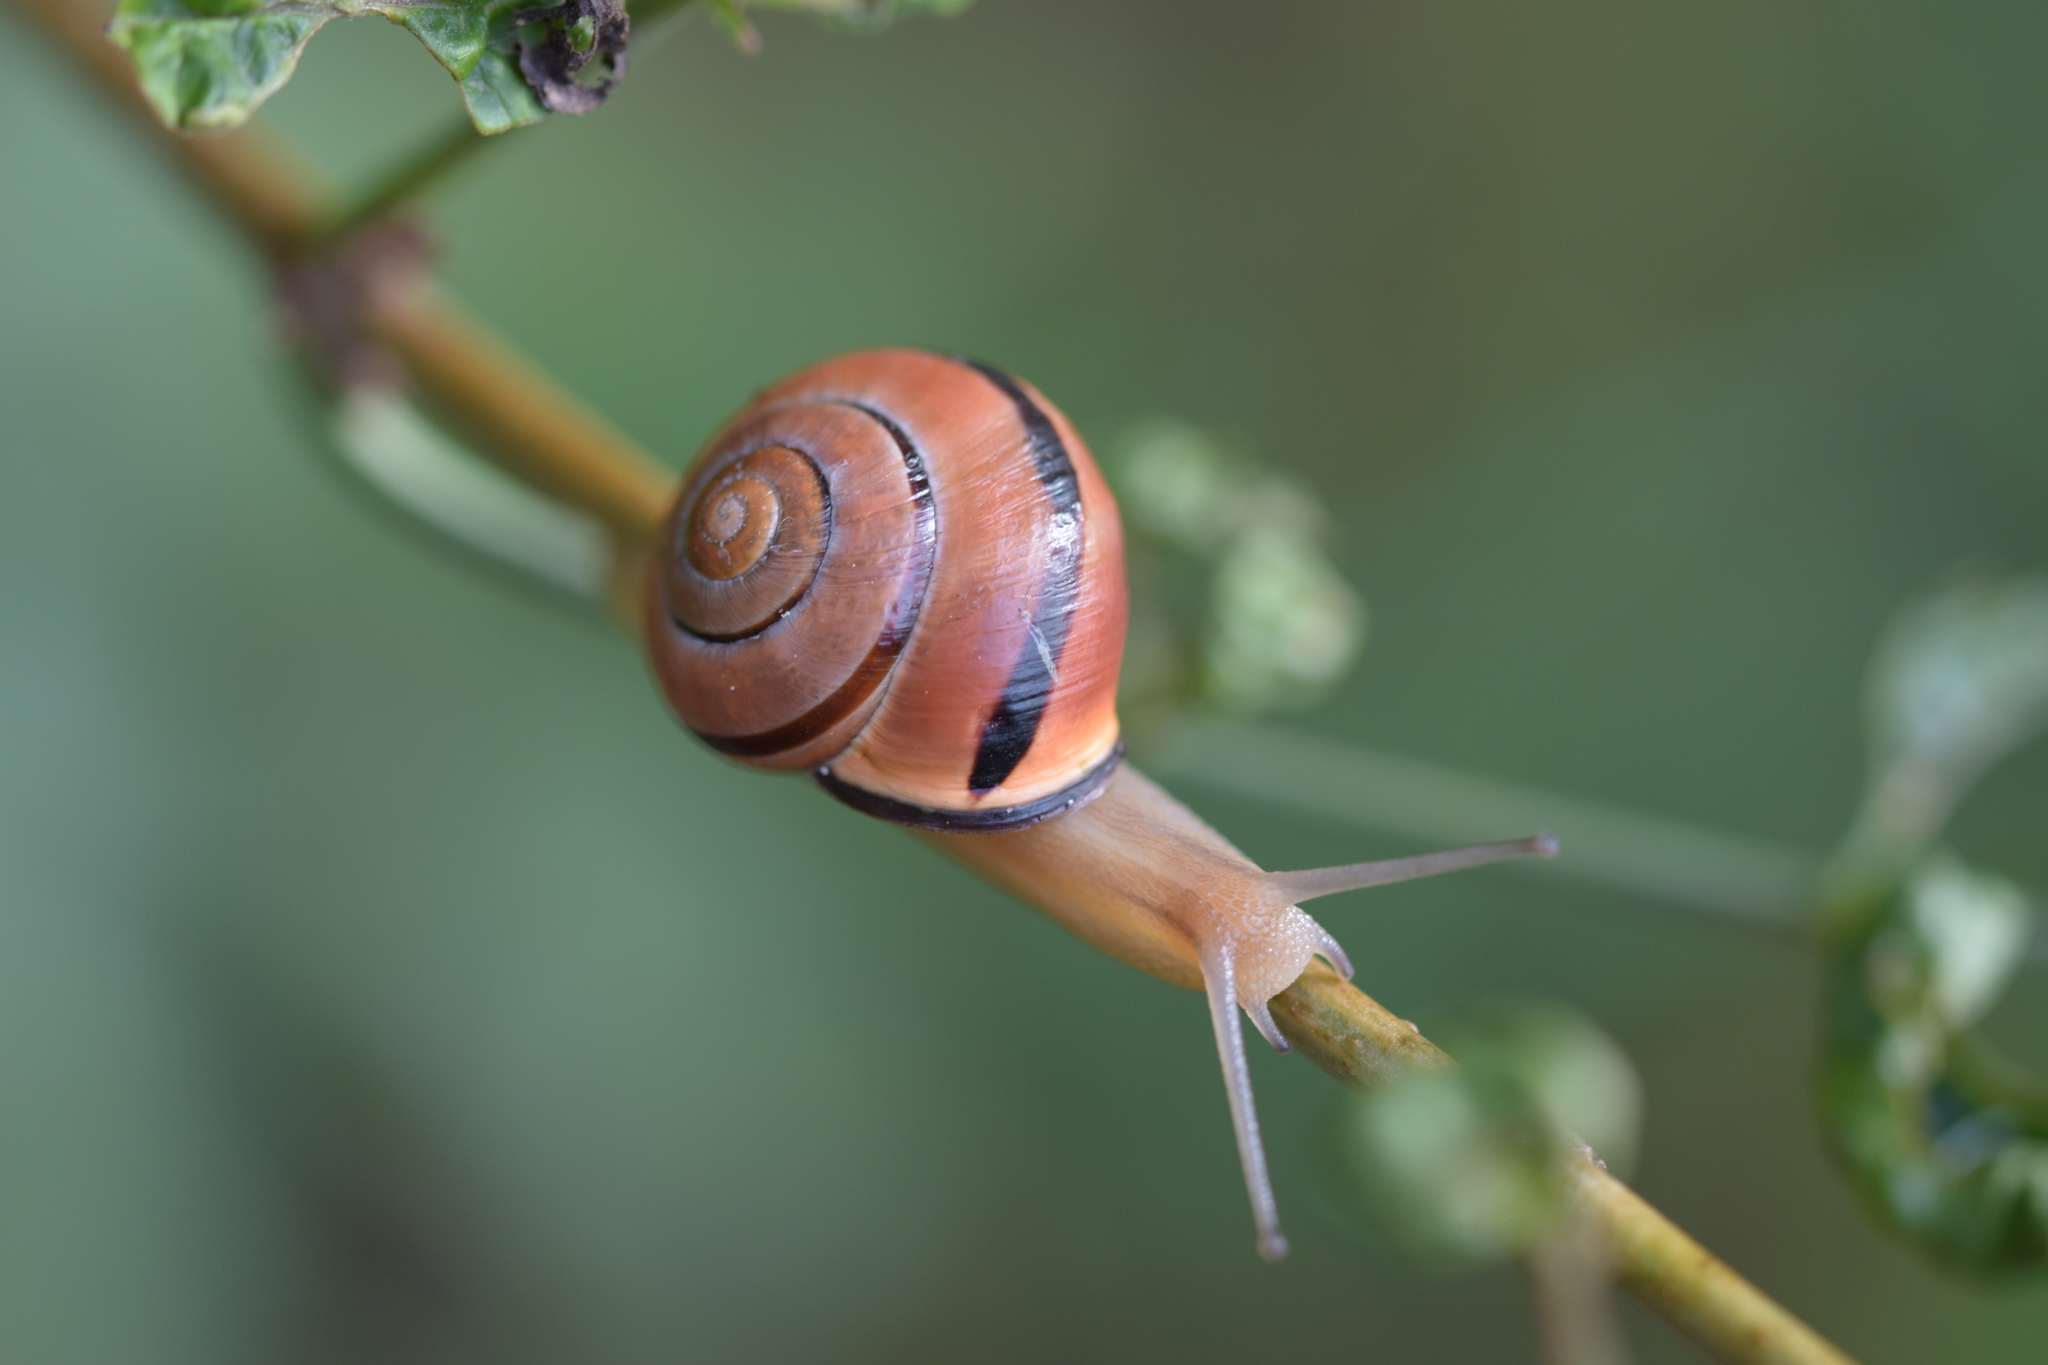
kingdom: Animalia
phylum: Mollusca
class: Gastropoda
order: Stylommatophora
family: Helicidae
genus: Cepaea
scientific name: Cepaea nemoralis
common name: Grovesnail
